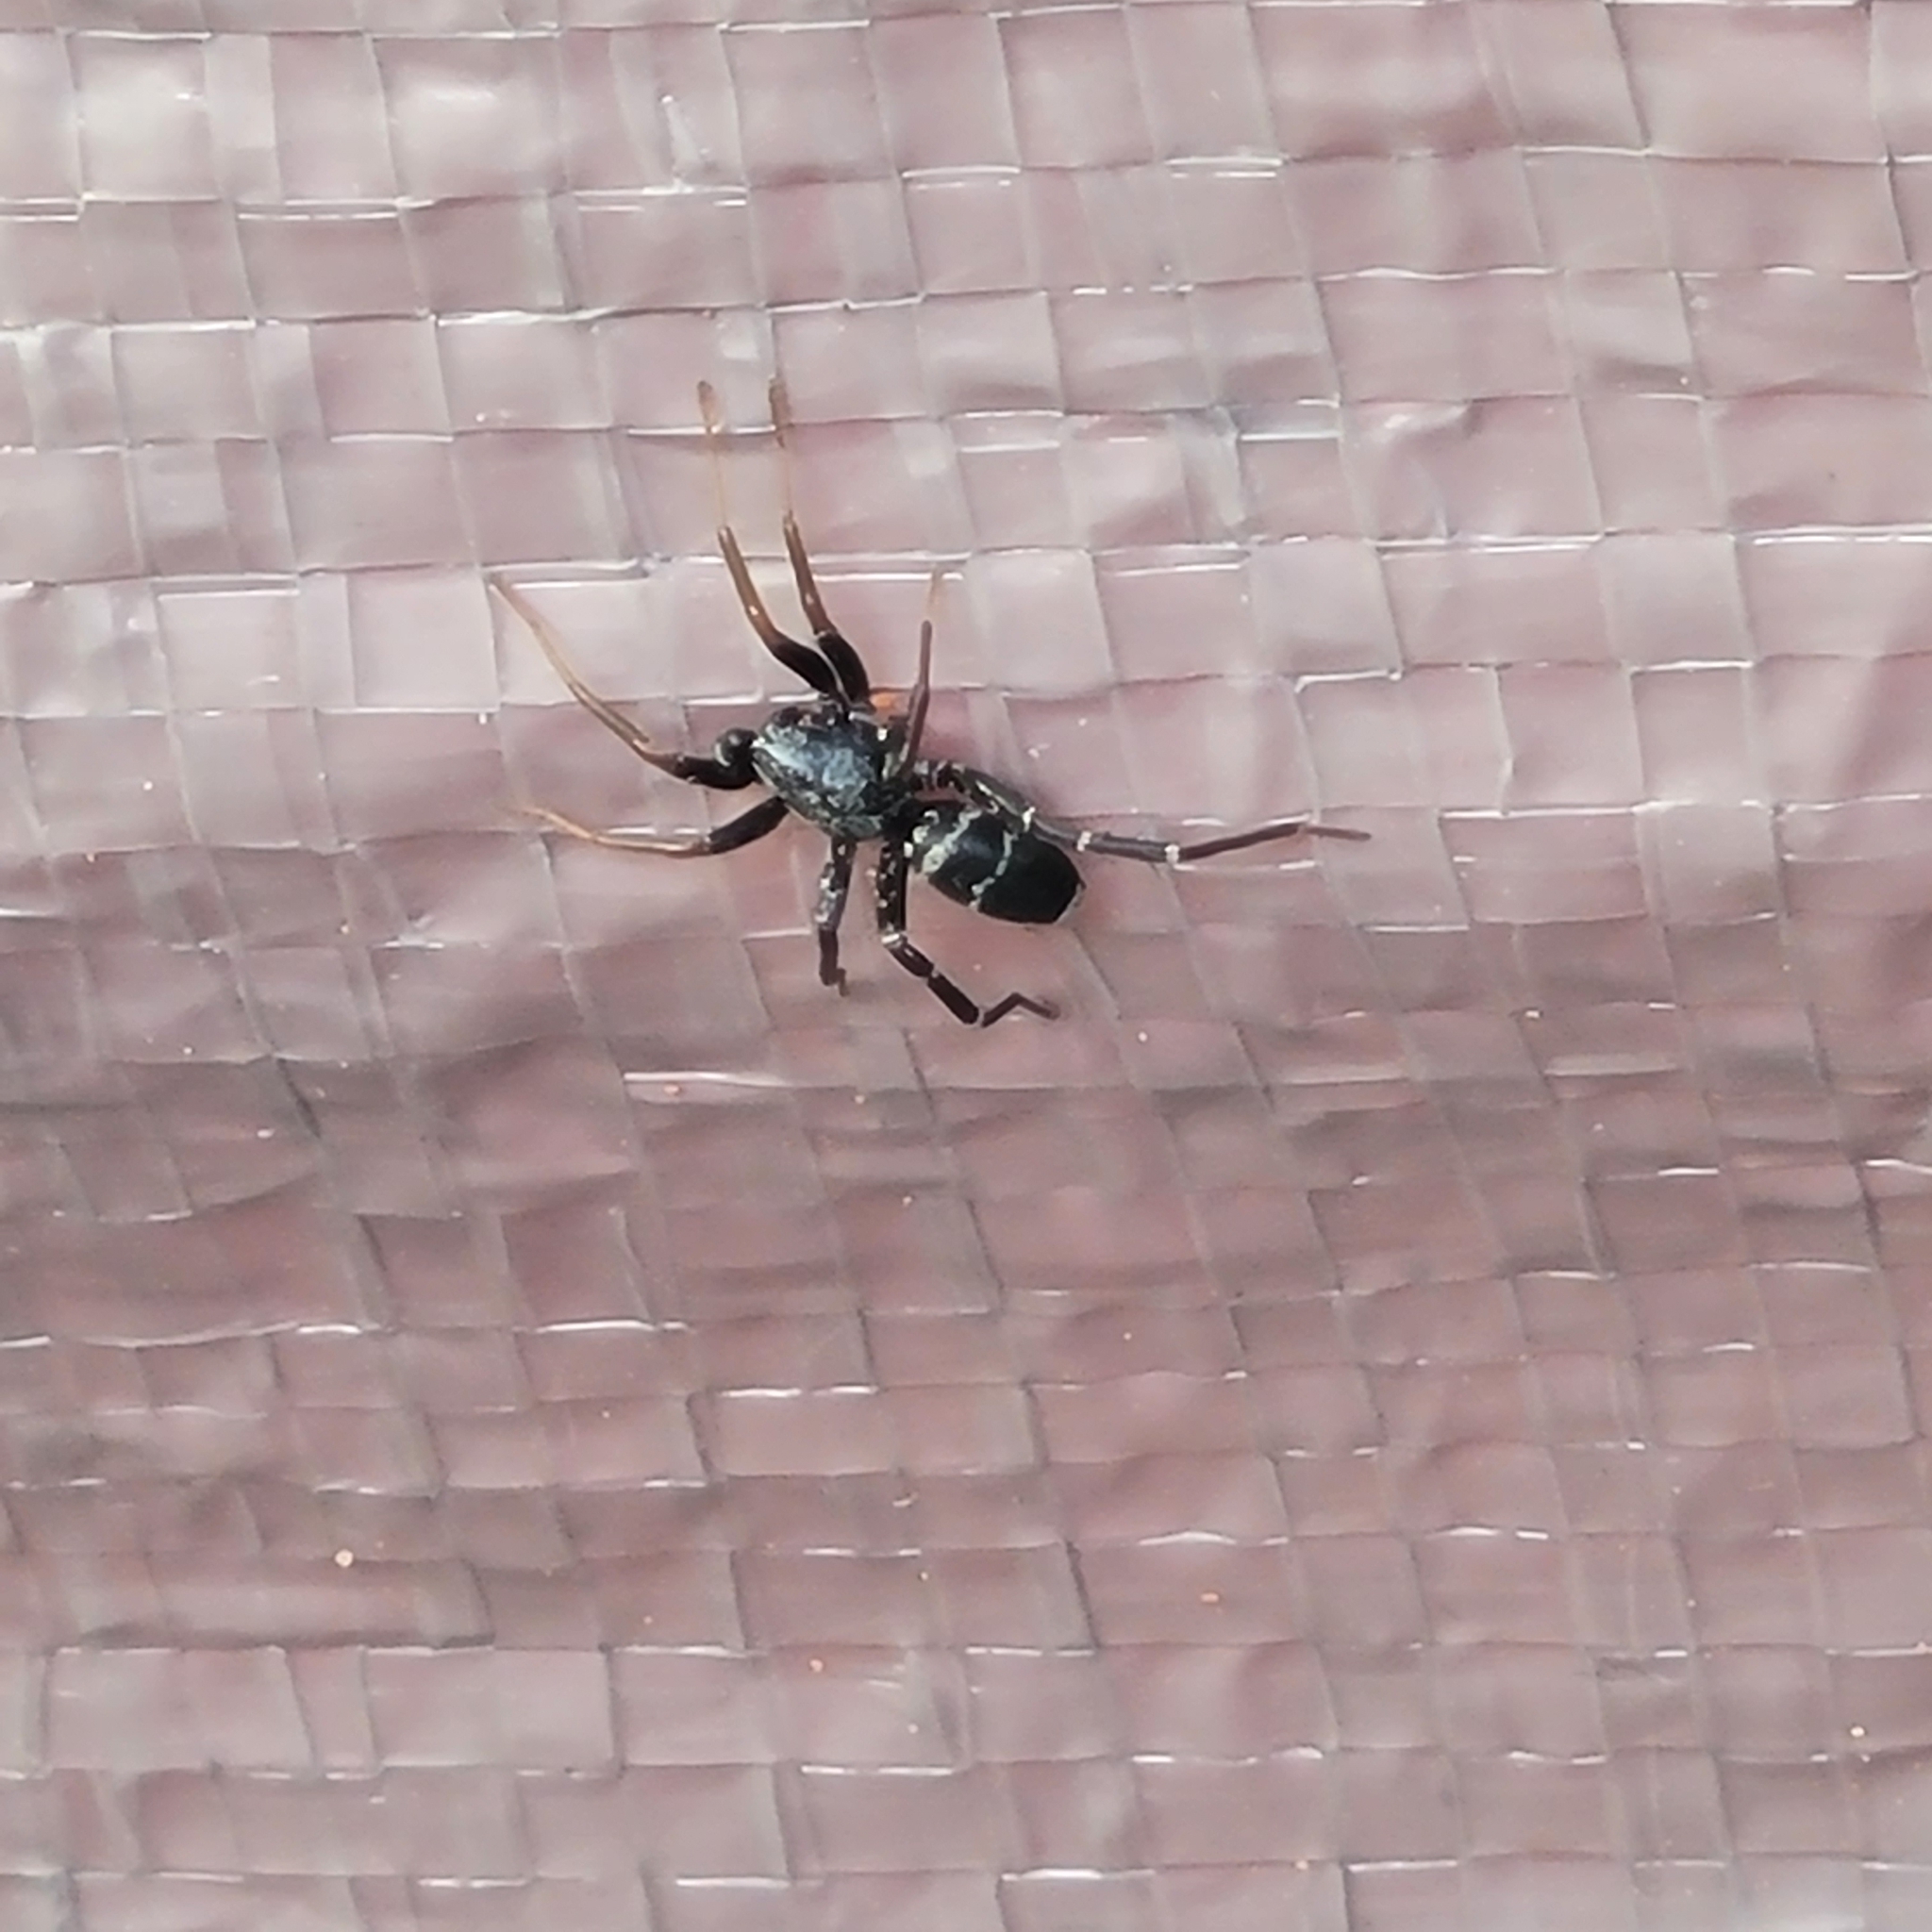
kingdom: Animalia
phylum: Arthropoda
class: Arachnida
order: Araneae
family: Corinnidae
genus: Castianeira
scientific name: Castianeira cingulata
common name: Two-banded ant-mimic sac spider
